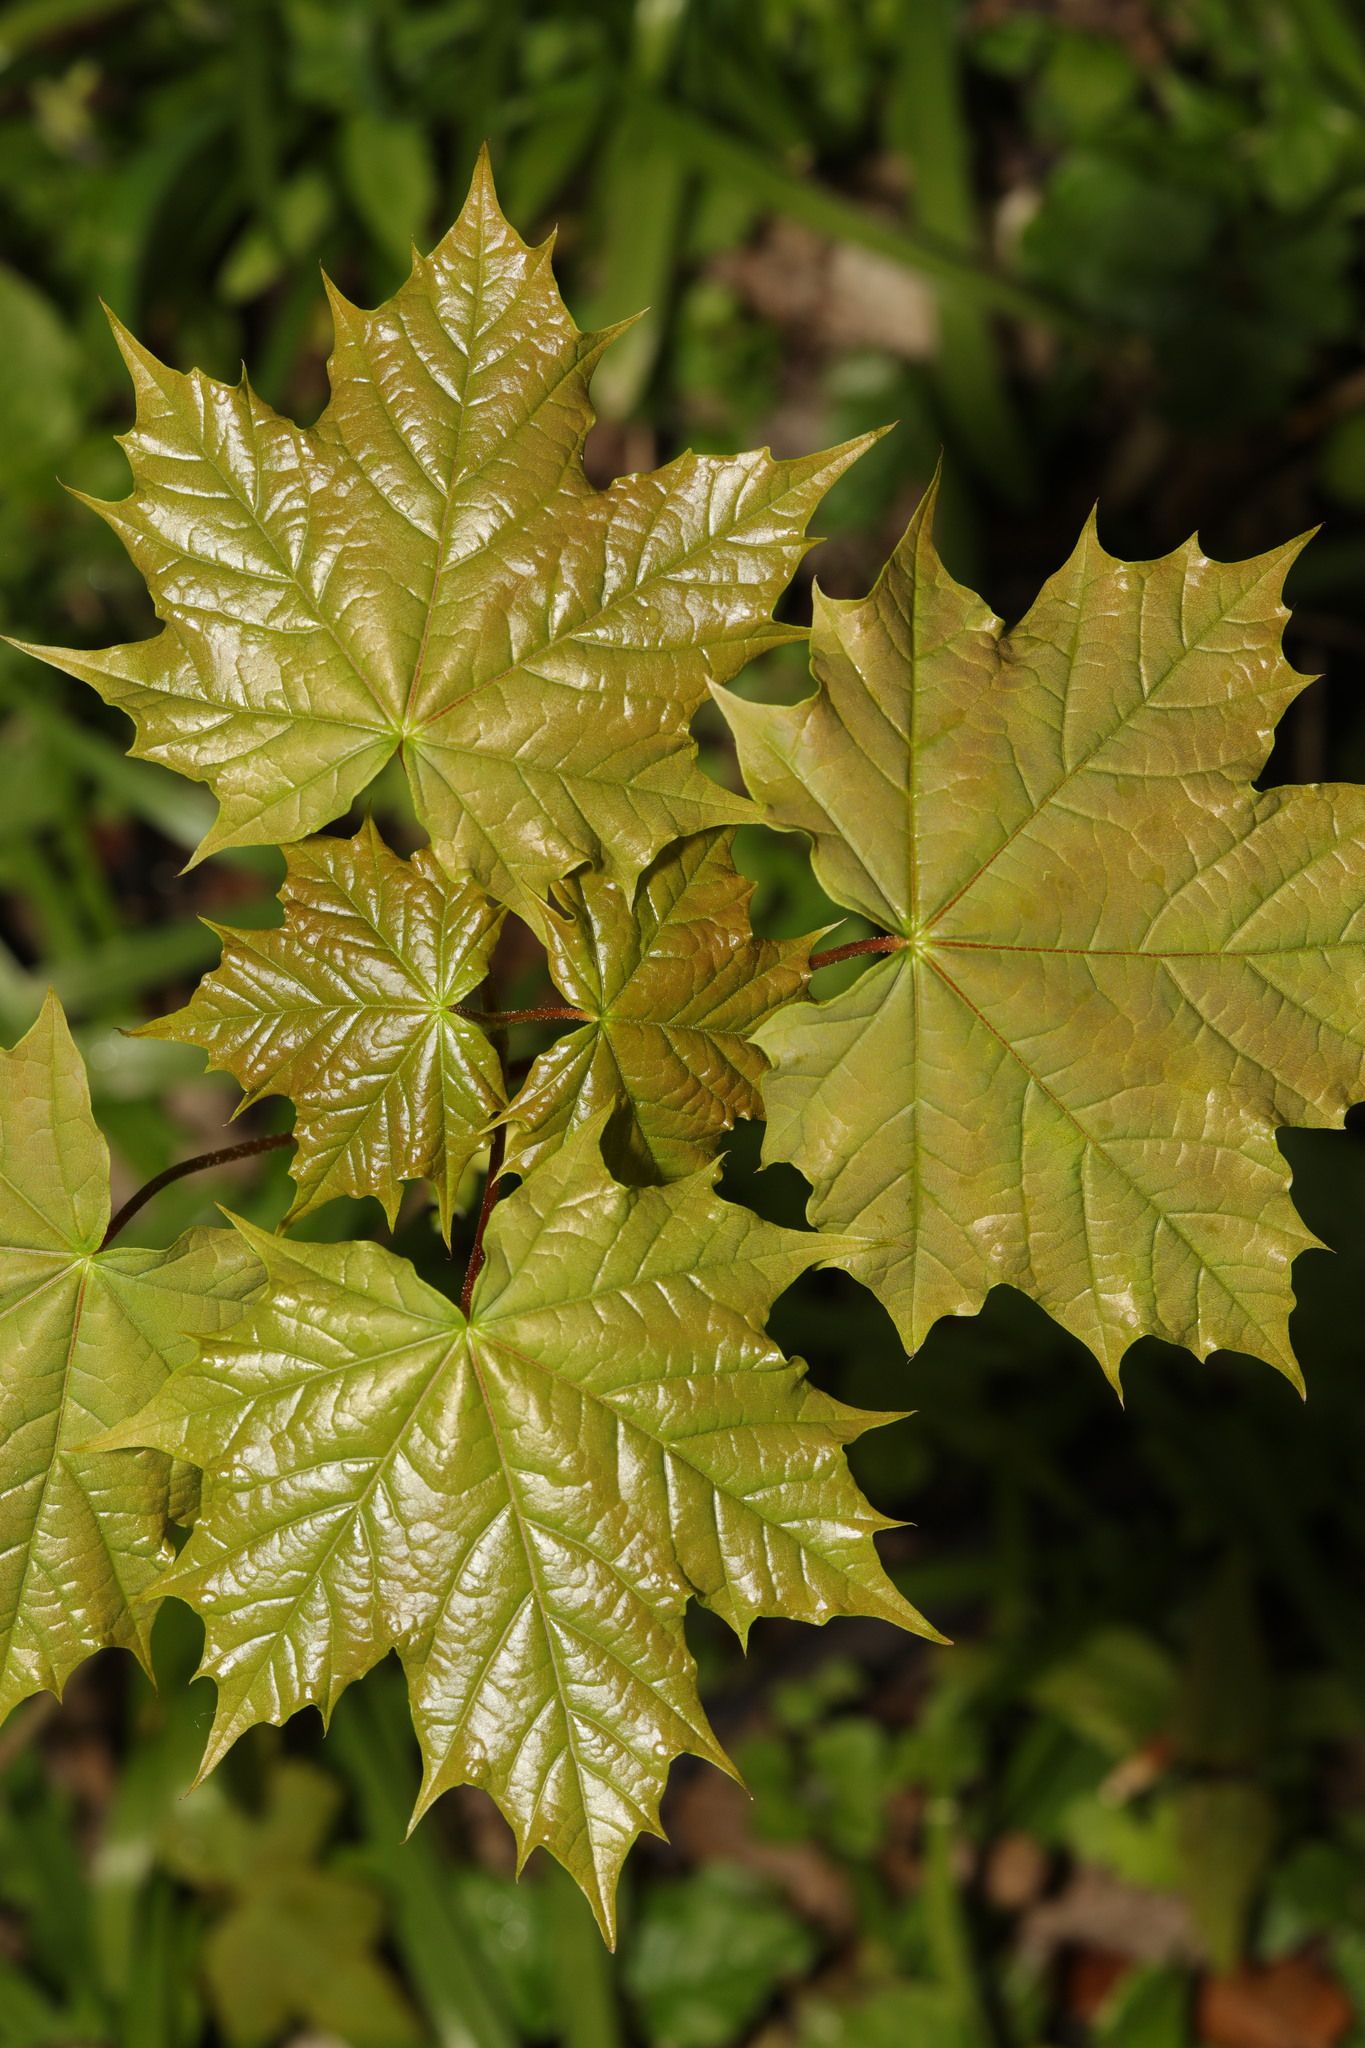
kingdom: Plantae
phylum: Tracheophyta
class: Magnoliopsida
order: Sapindales
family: Sapindaceae
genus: Acer
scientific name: Acer platanoides
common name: Norway maple
